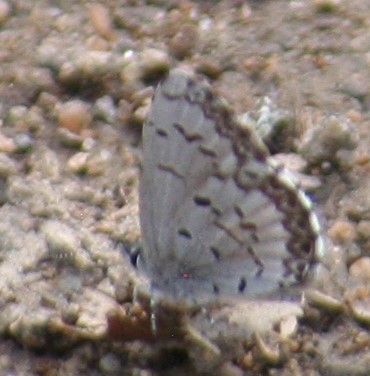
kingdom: Animalia
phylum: Arthropoda
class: Insecta
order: Lepidoptera
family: Lycaenidae
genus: Celastrina
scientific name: Celastrina lucia
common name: Lucia azure
